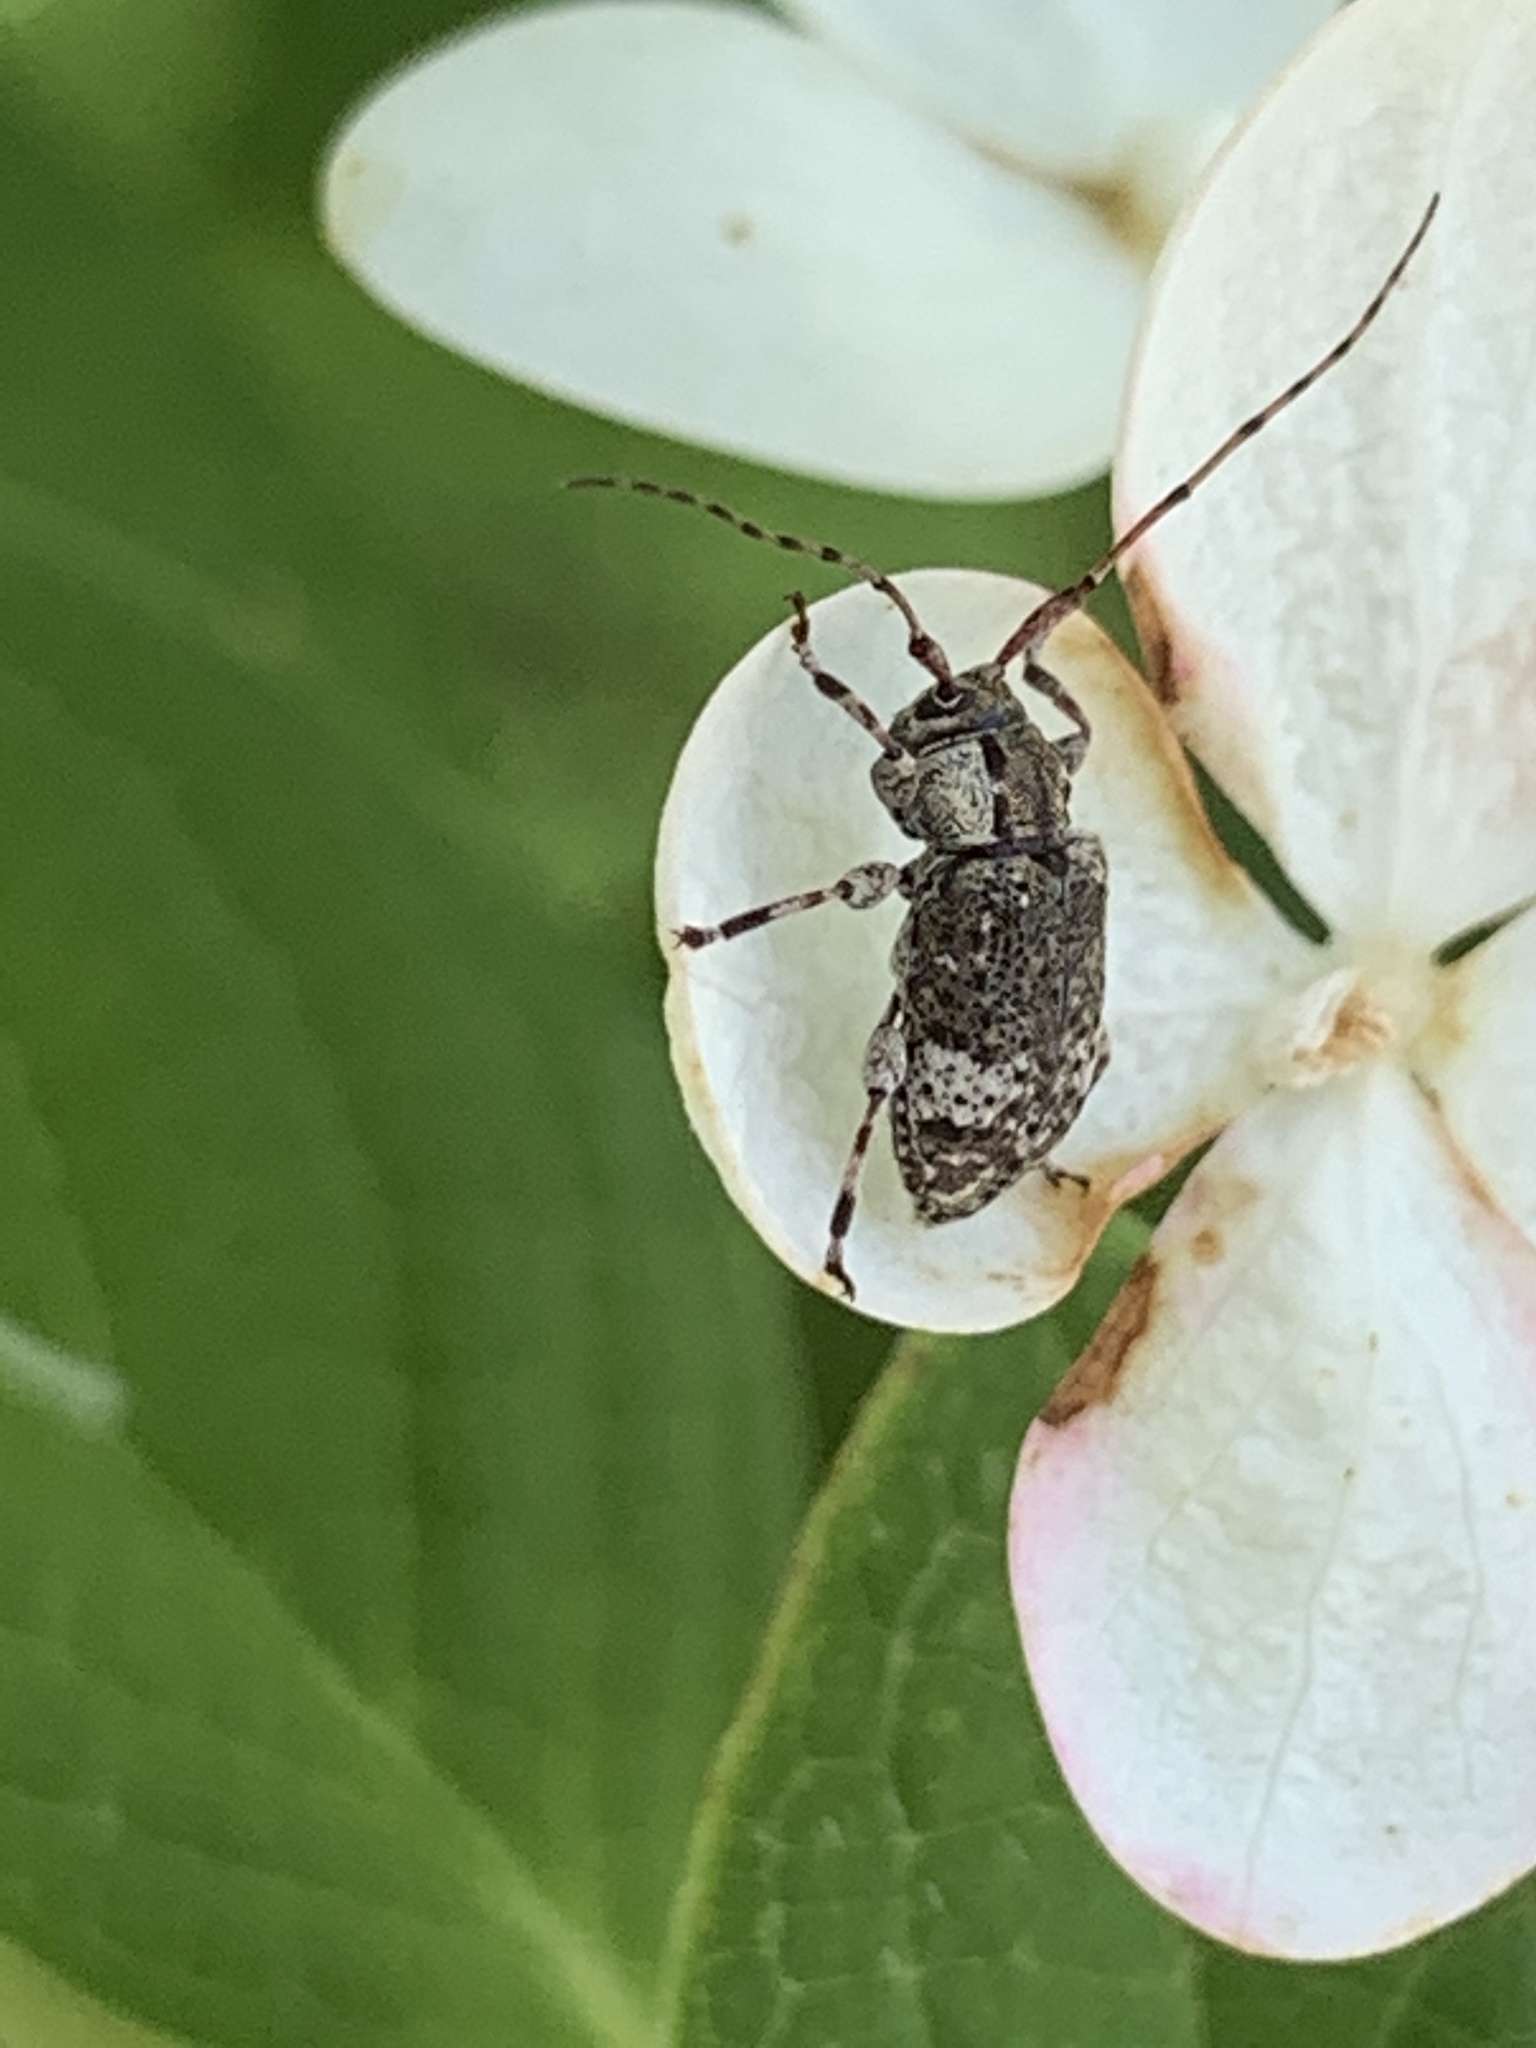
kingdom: Animalia
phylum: Arthropoda
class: Insecta
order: Coleoptera
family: Cerambycidae
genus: Astylopsis
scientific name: Astylopsis macula
